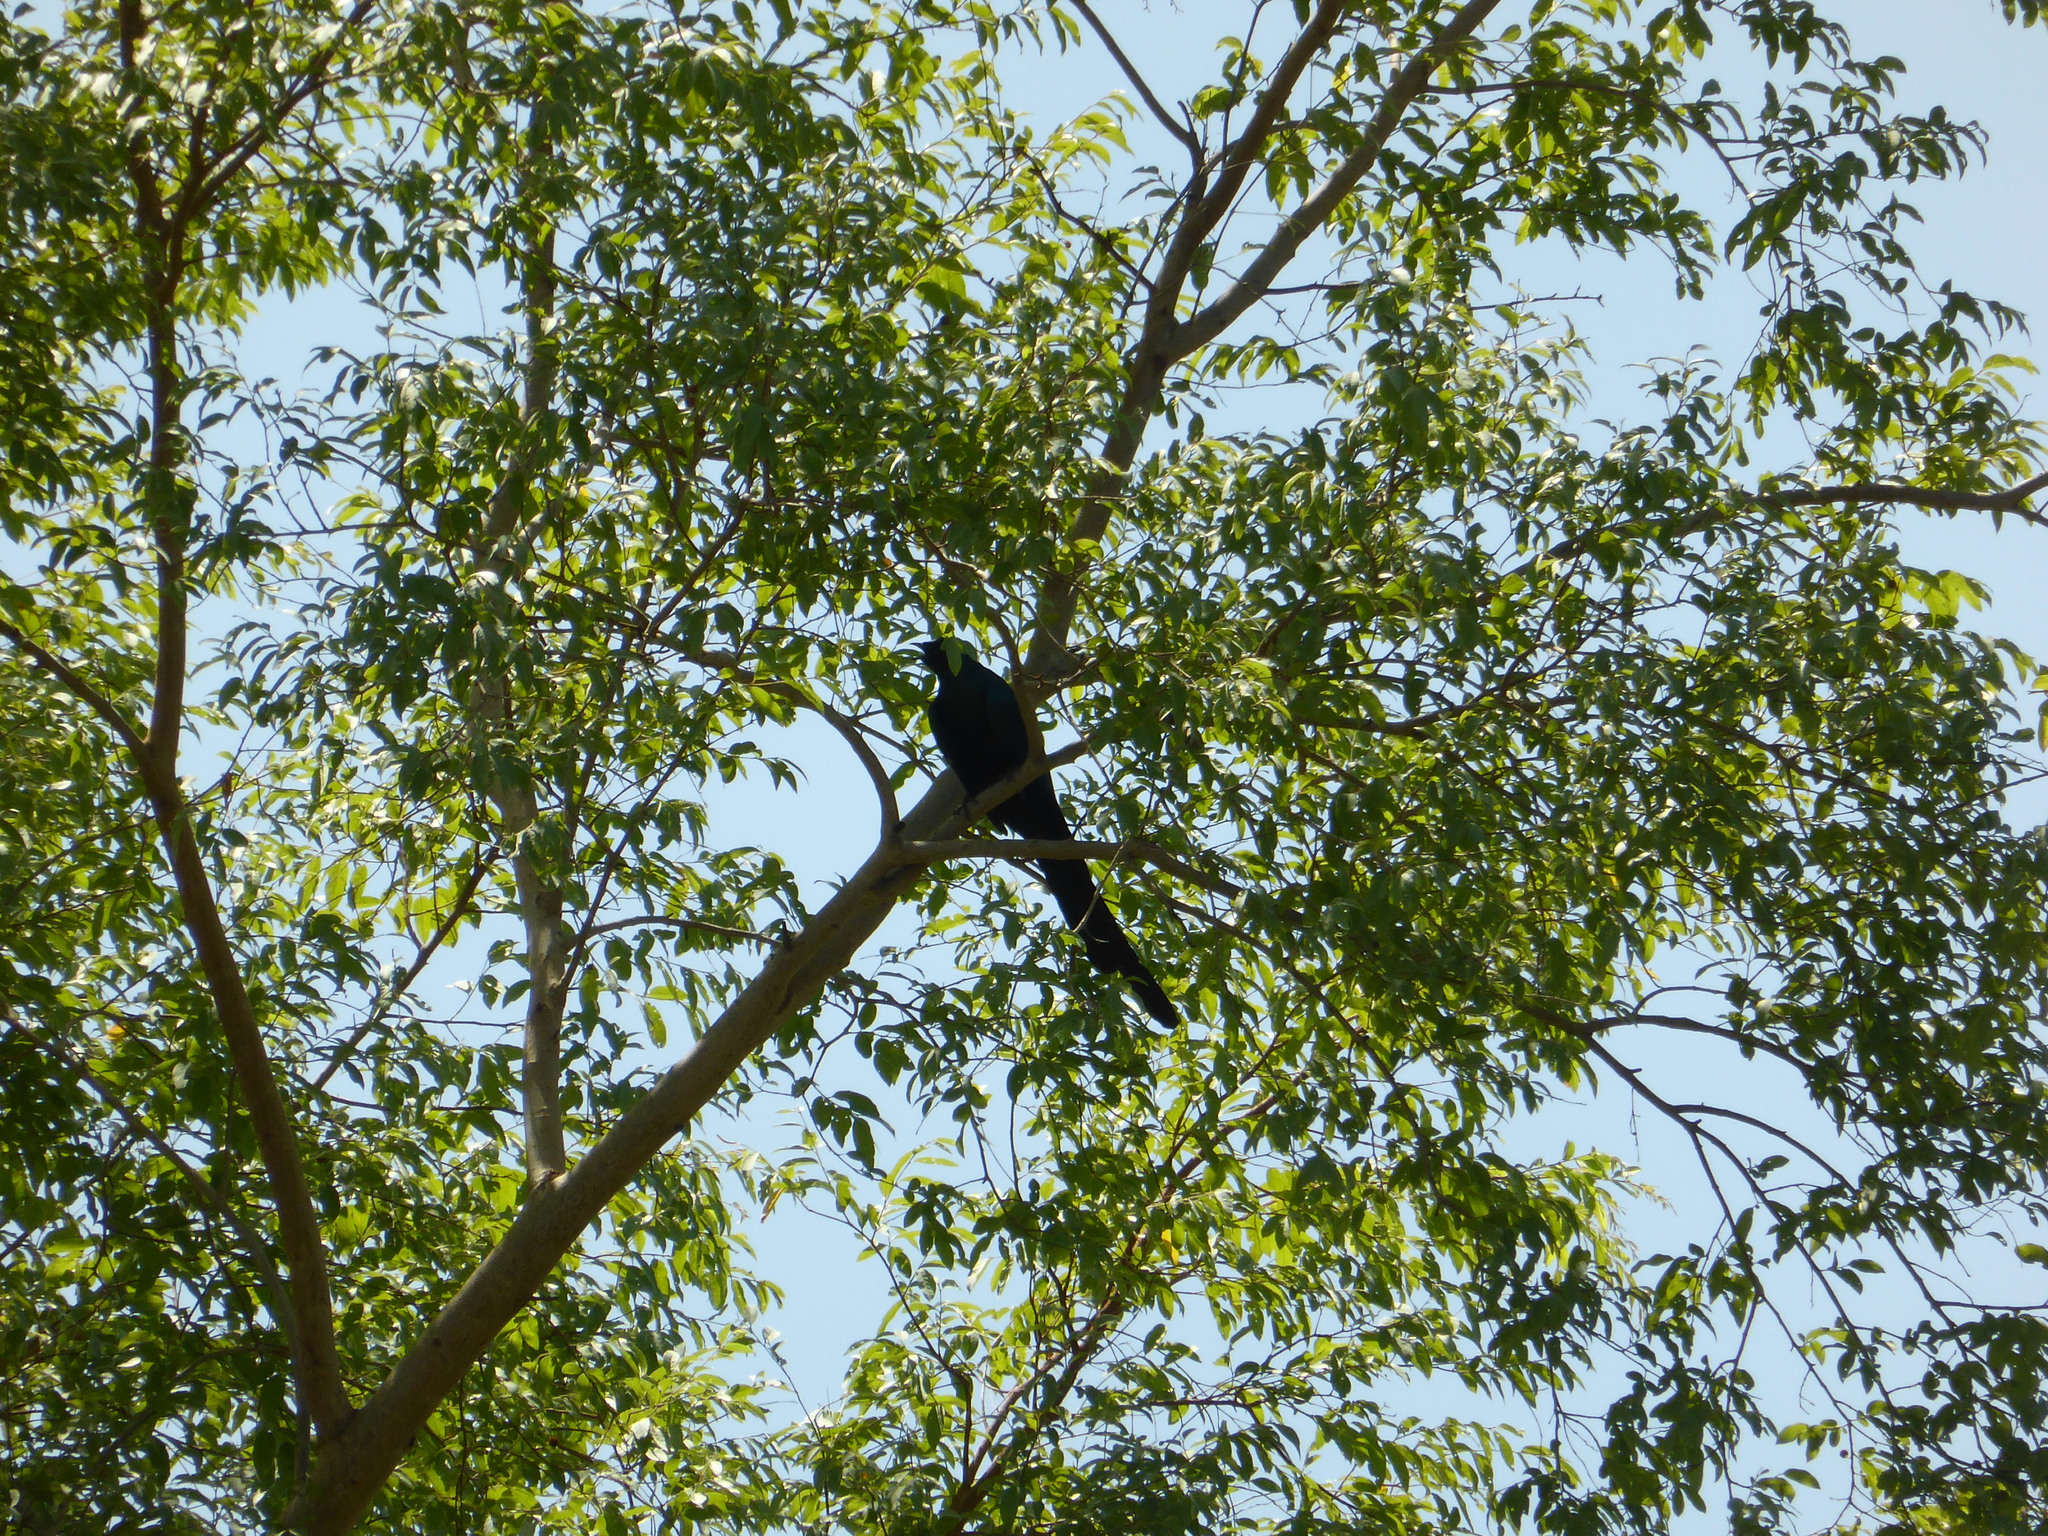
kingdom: Animalia
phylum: Chordata
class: Aves
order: Passeriformes
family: Sturnidae
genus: Lamprotornis
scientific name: Lamprotornis caudatus
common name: Long-tailed glossy starling
